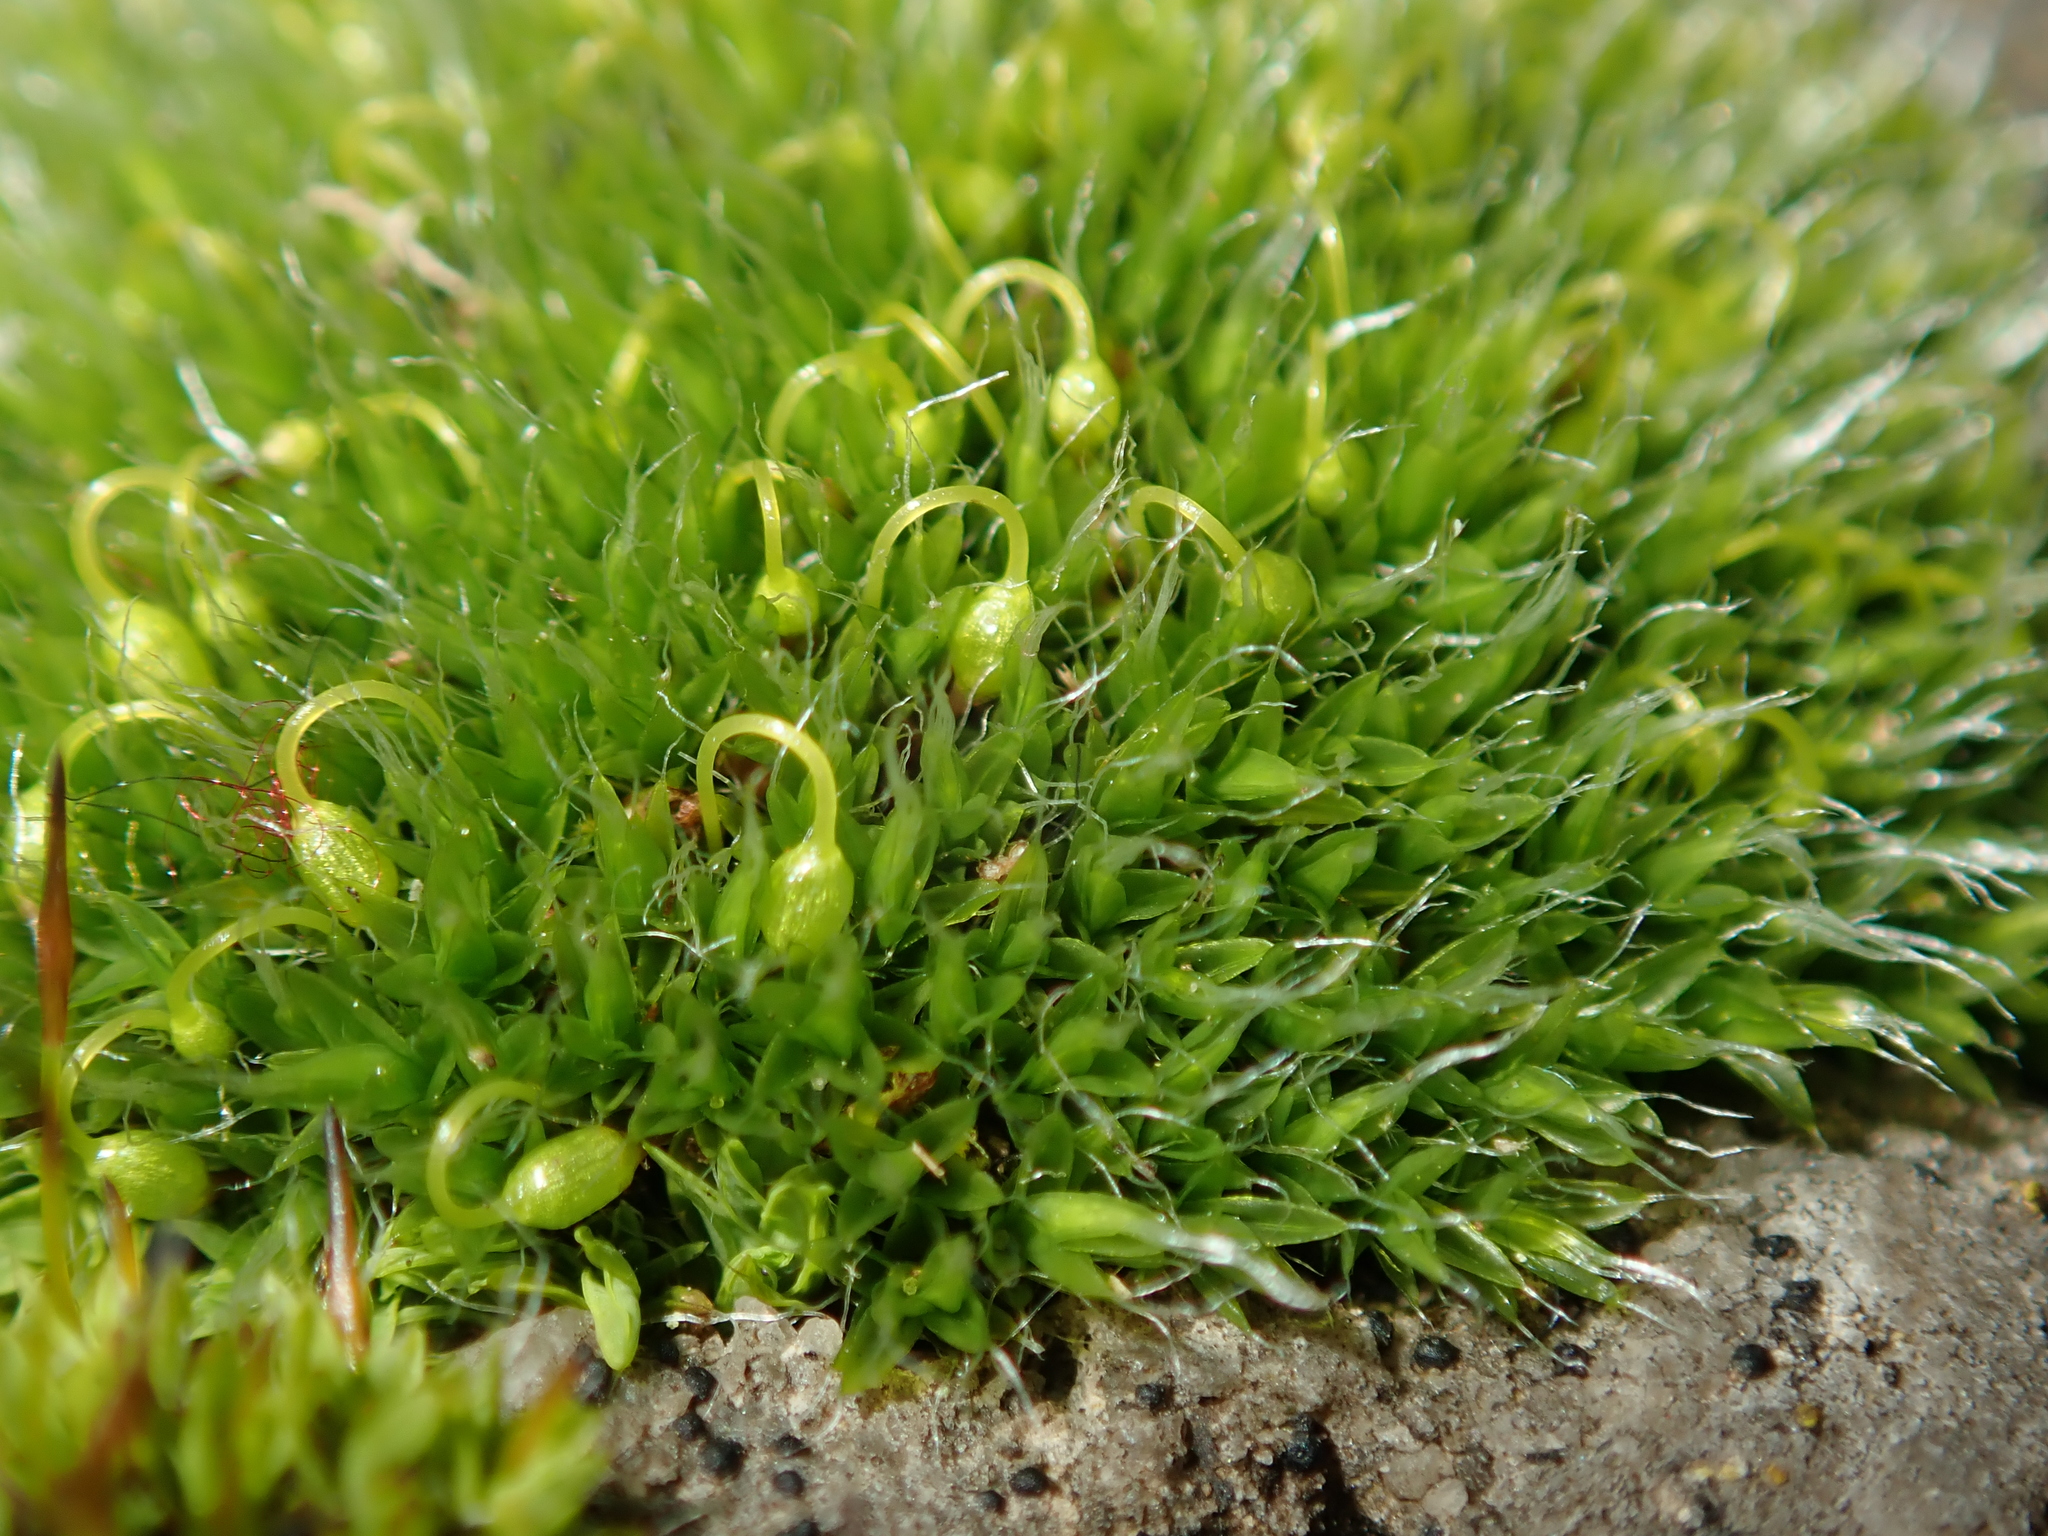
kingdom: Plantae
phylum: Bryophyta
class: Bryopsida
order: Grimmiales
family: Grimmiaceae
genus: Grimmia
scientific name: Grimmia pulvinata
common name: Grey-cushioned grimmia
